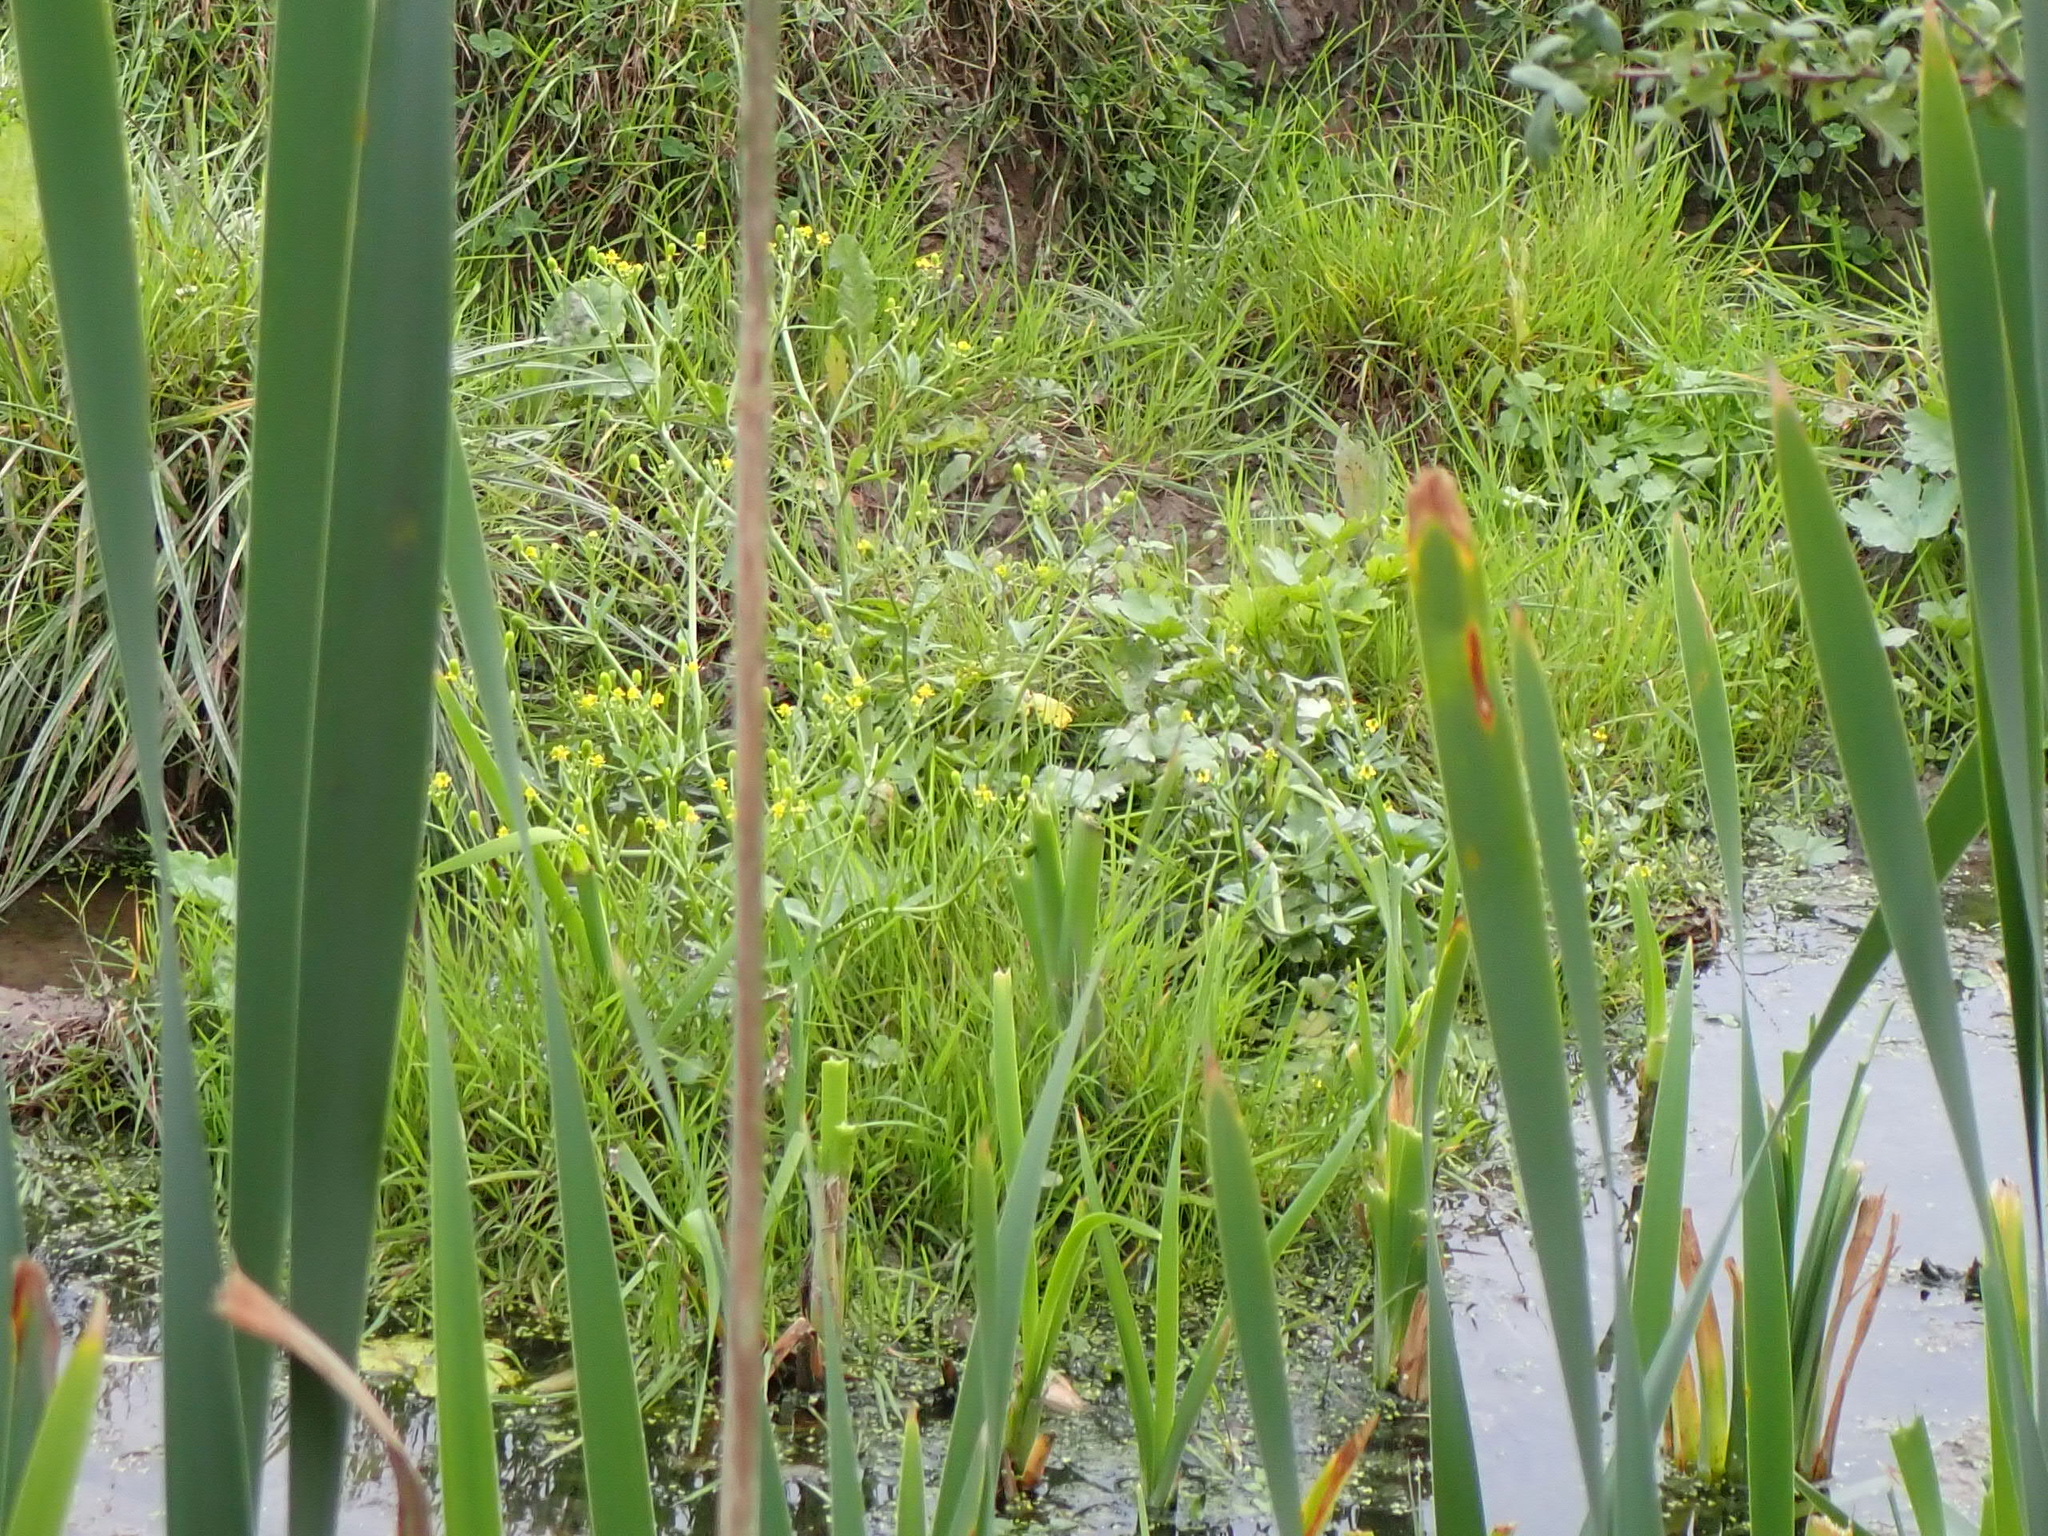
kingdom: Plantae
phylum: Tracheophyta
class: Magnoliopsida
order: Ranunculales
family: Ranunculaceae
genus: Ranunculus
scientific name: Ranunculus sceleratus
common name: Celery-leaved buttercup
